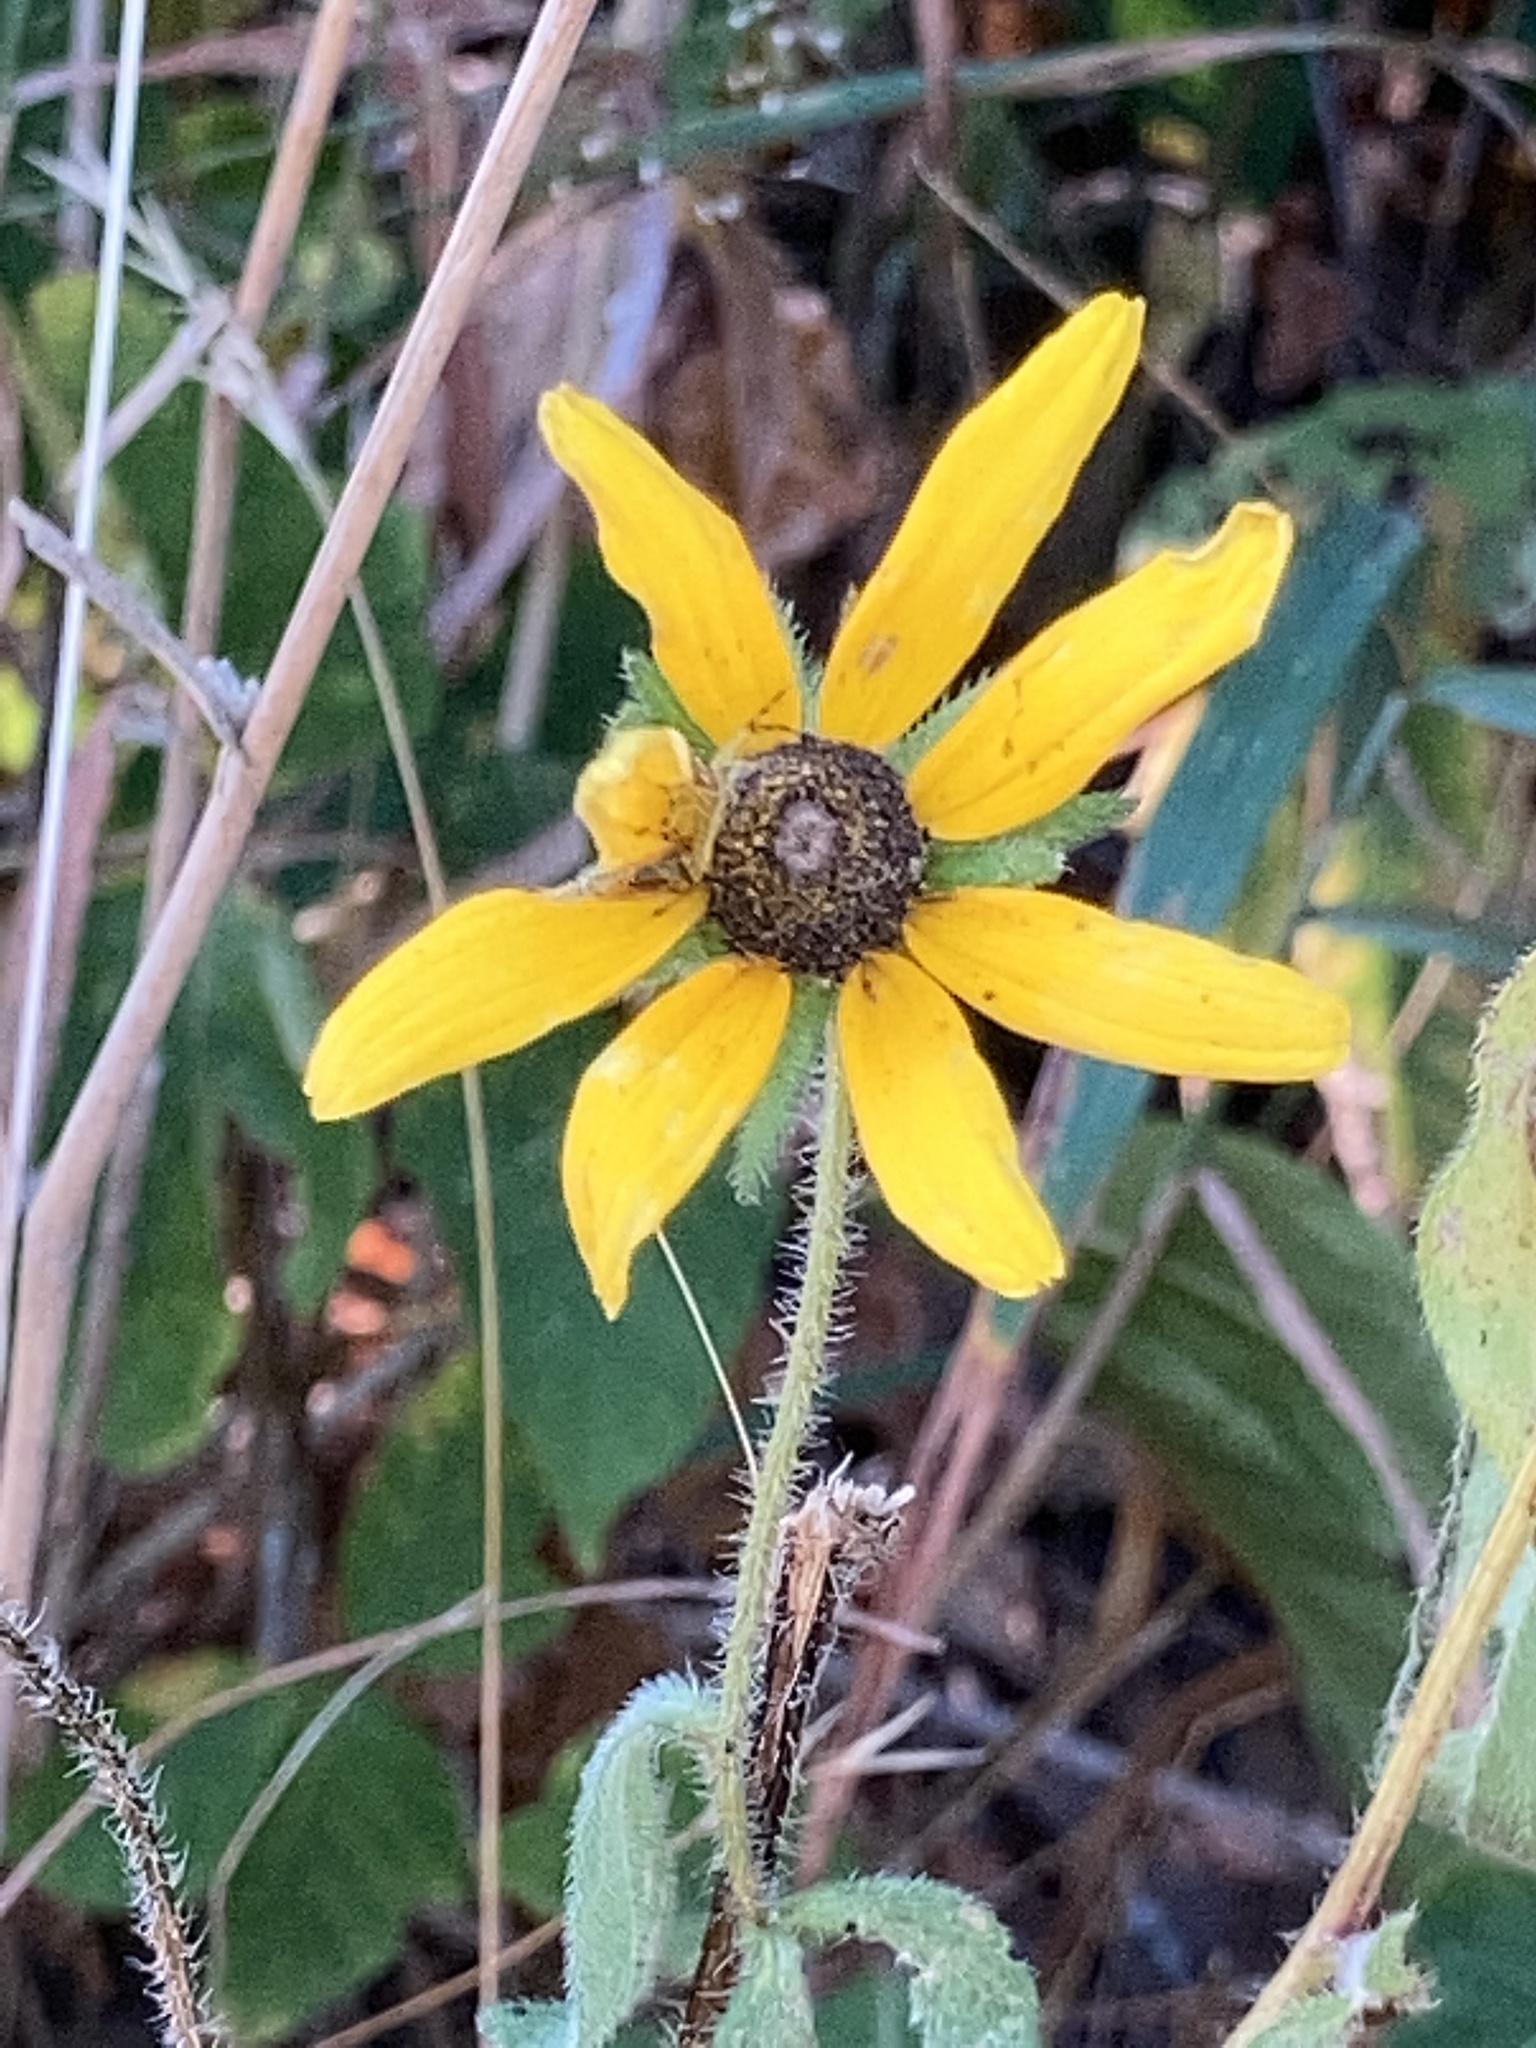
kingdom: Plantae
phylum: Tracheophyta
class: Magnoliopsida
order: Asterales
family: Asteraceae
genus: Rudbeckia
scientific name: Rudbeckia hirta
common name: Black-eyed-susan
